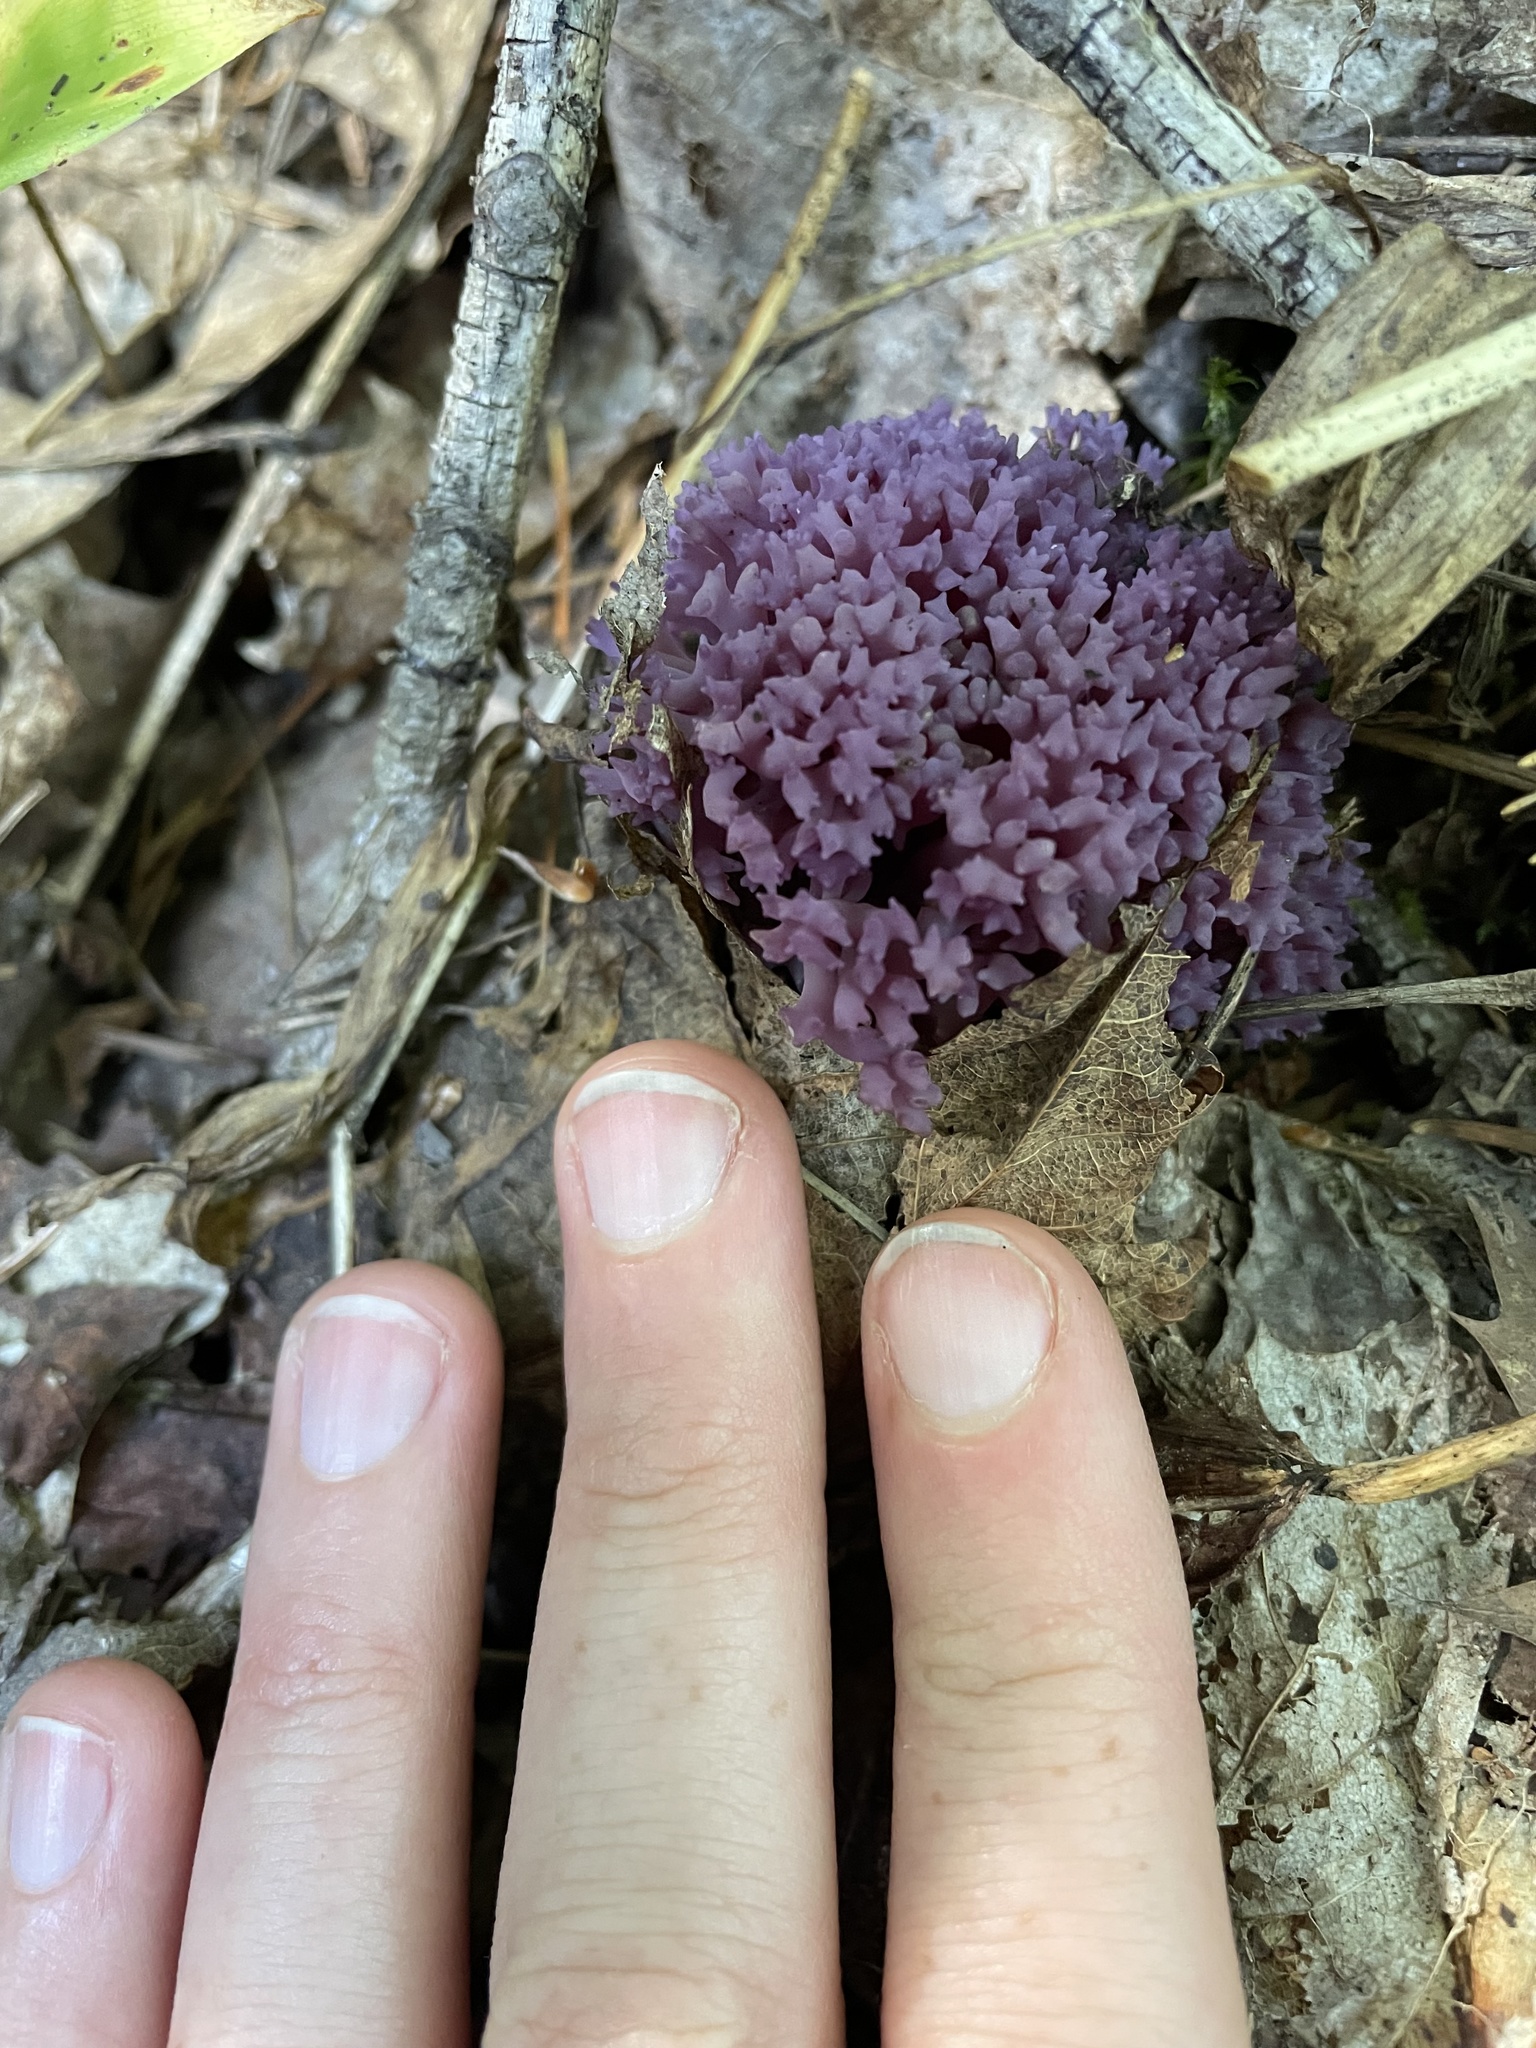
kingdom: Fungi
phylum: Basidiomycota
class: Agaricomycetes
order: Agaricales
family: Clavariaceae
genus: Clavaria
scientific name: Clavaria zollingeri
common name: Violet coral
